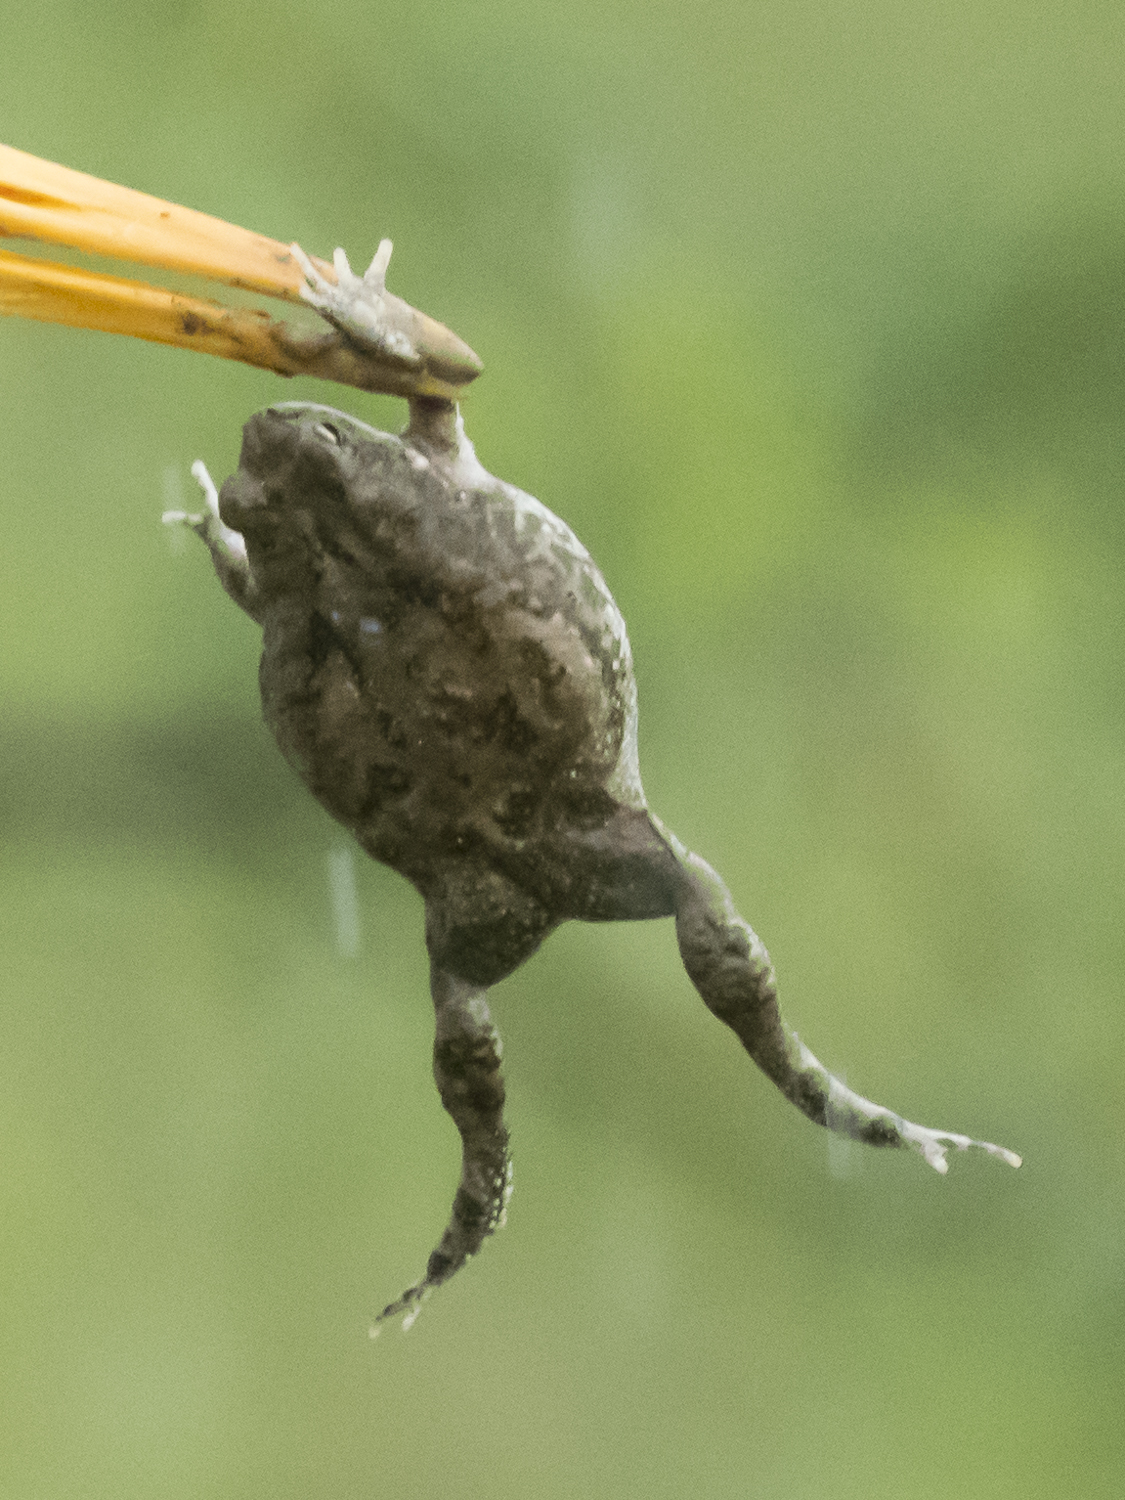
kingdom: Animalia
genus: Firouzophrynus
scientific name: Firouzophrynus
